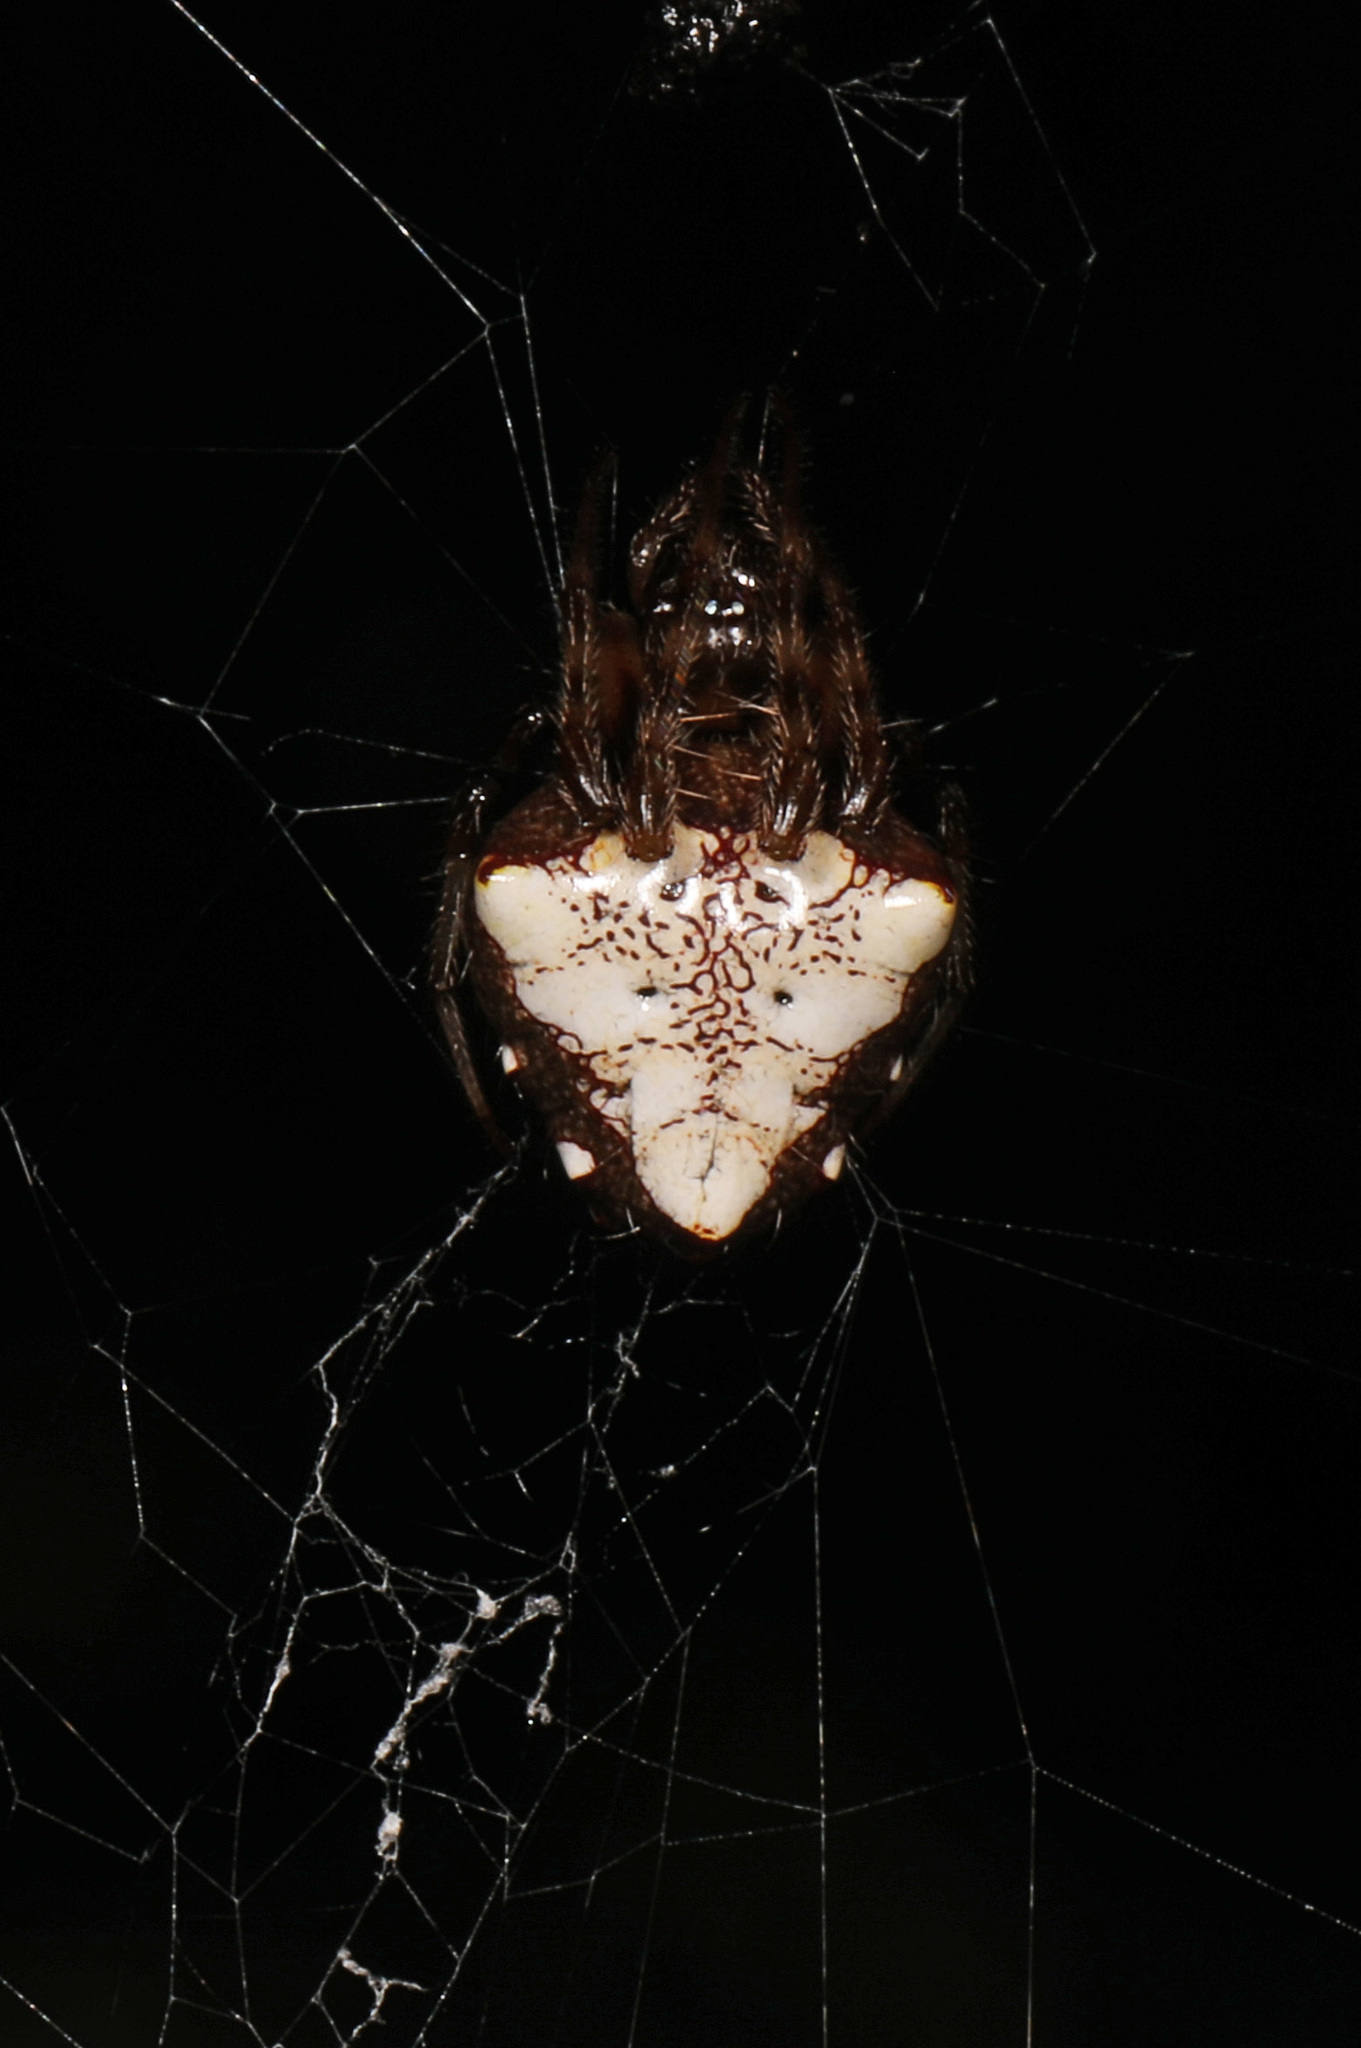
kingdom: Animalia
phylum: Arthropoda
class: Arachnida
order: Araneae
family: Araneidae
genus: Verrucosa
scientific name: Verrucosa arenata
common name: Orb weavers
